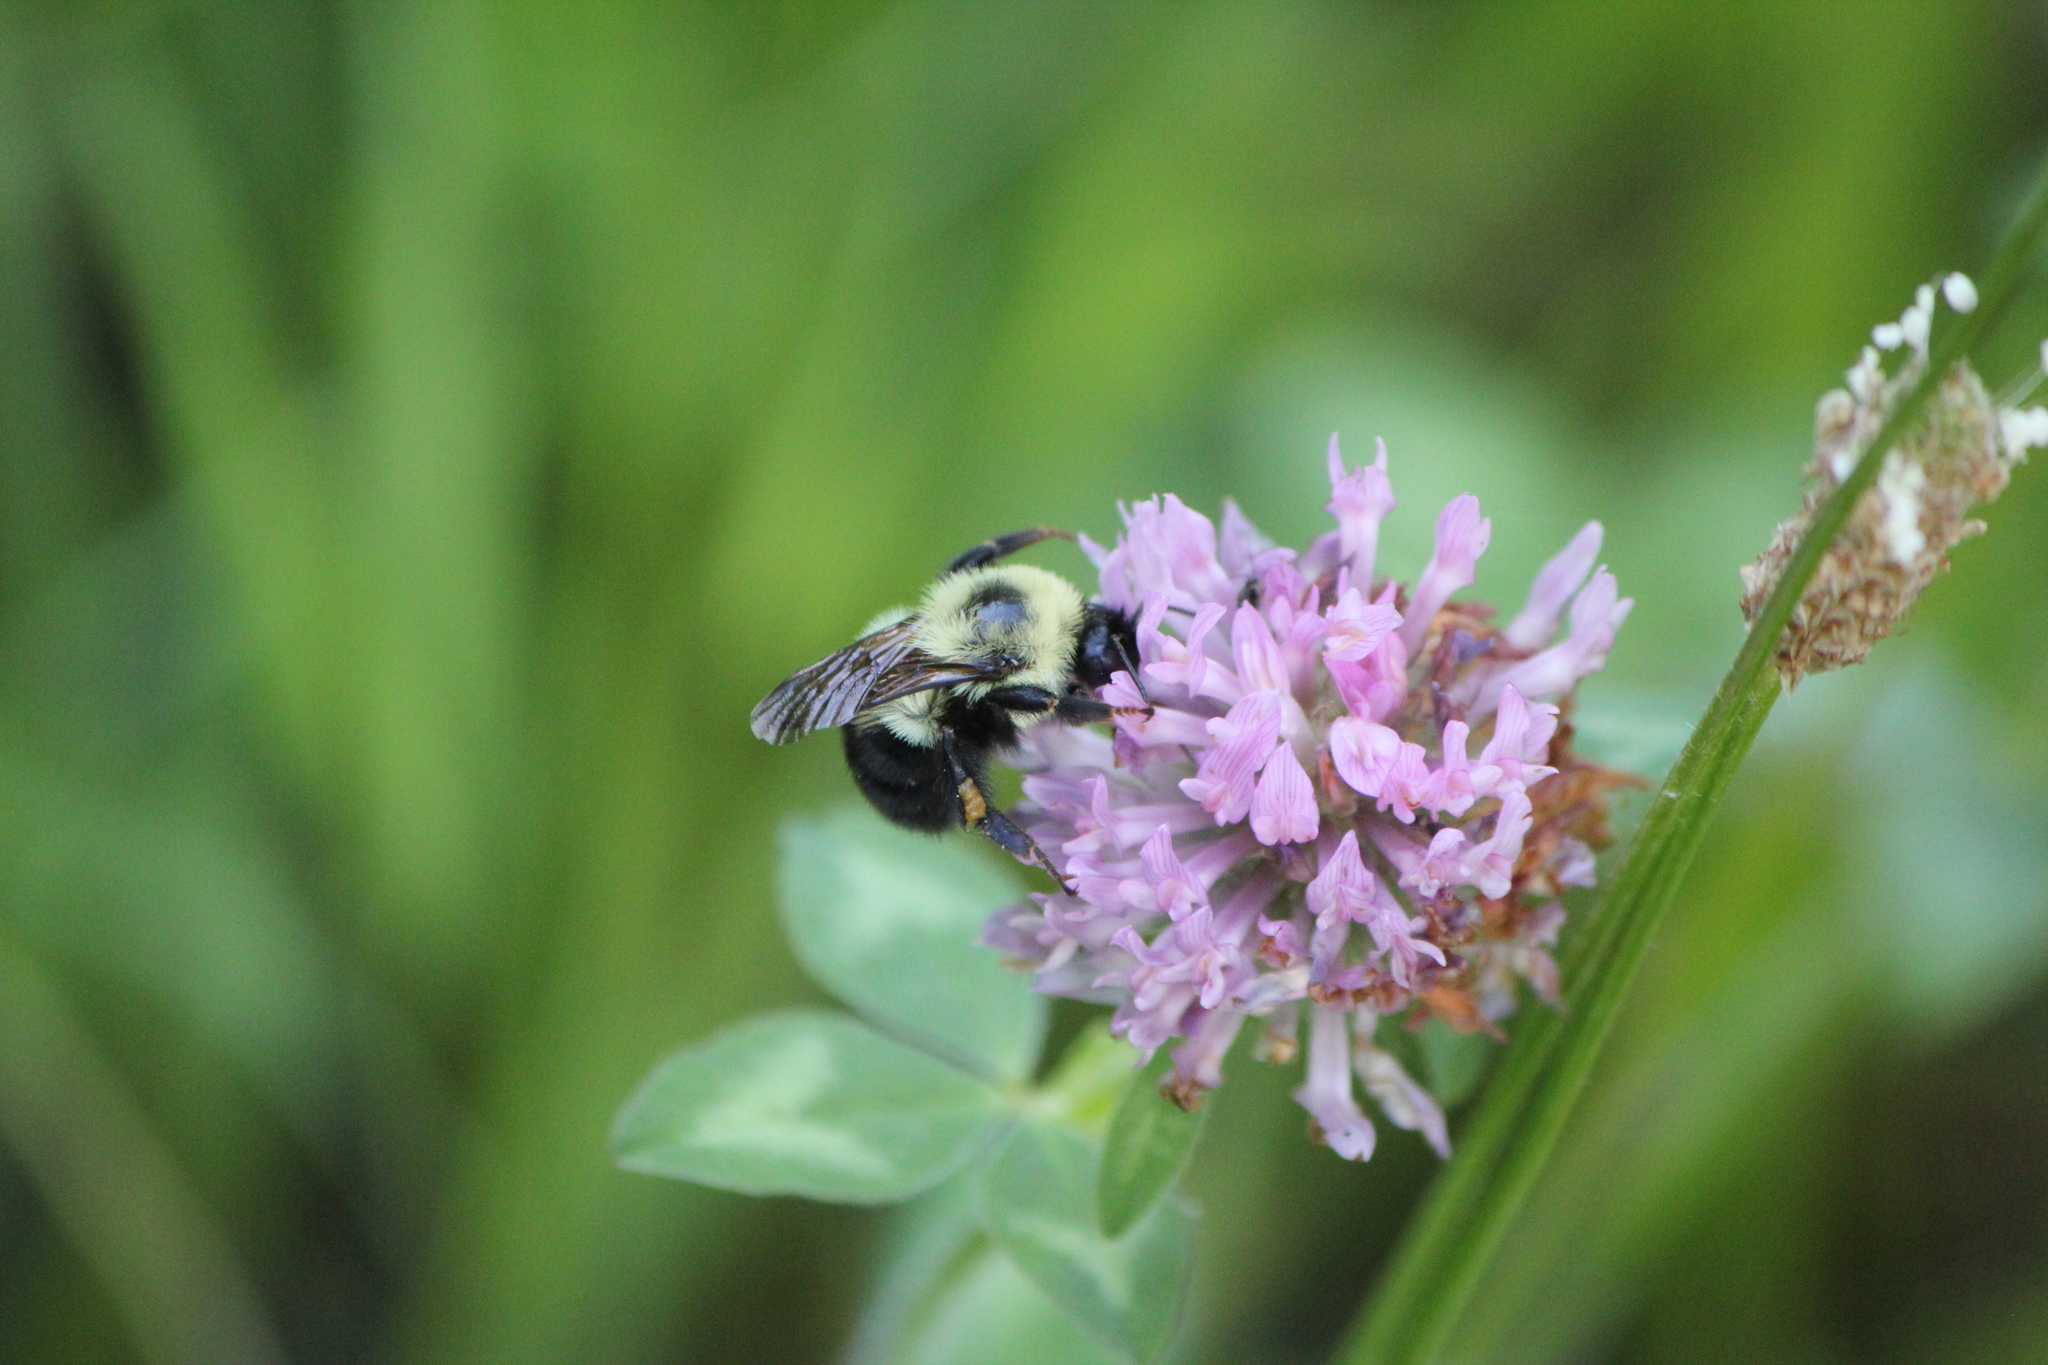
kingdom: Animalia
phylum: Arthropoda
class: Insecta
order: Hymenoptera
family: Apidae
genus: Bombus
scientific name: Bombus bimaculatus
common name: Two-spotted bumble bee
